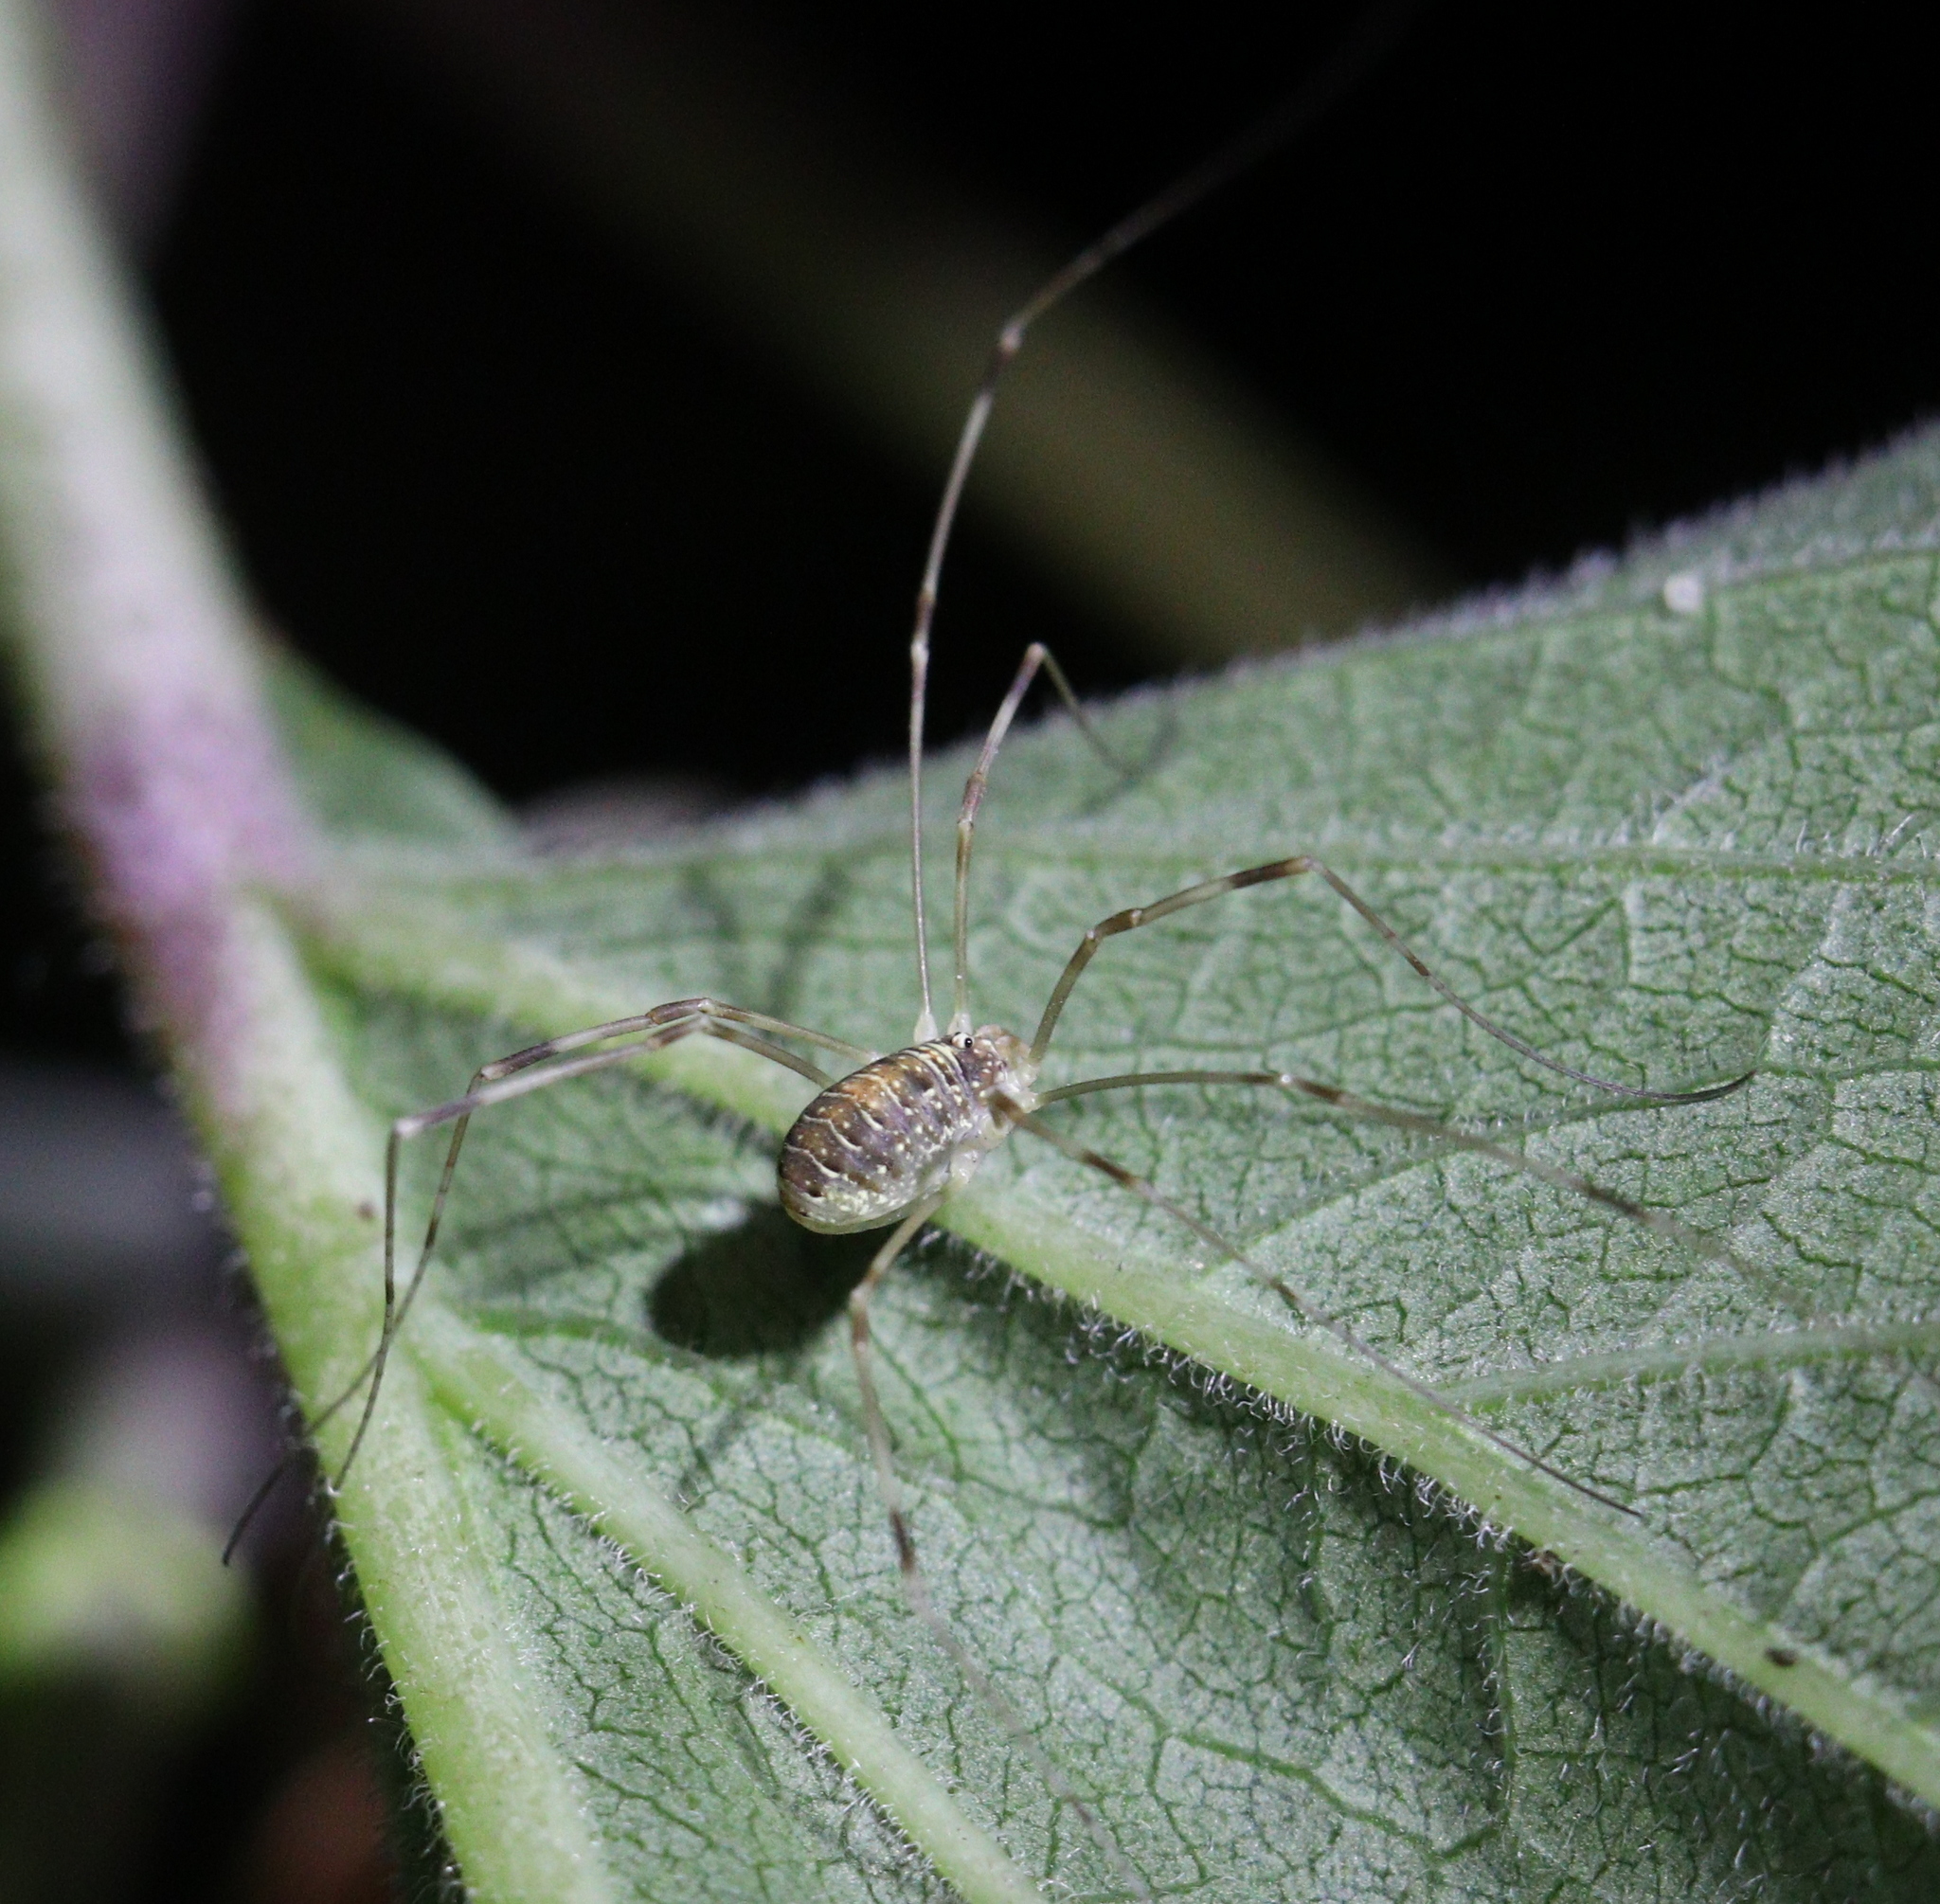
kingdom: Animalia
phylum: Arthropoda
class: Arachnida
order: Opiliones
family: Phalangiidae
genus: Opilio
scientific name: Opilio canestrinii
